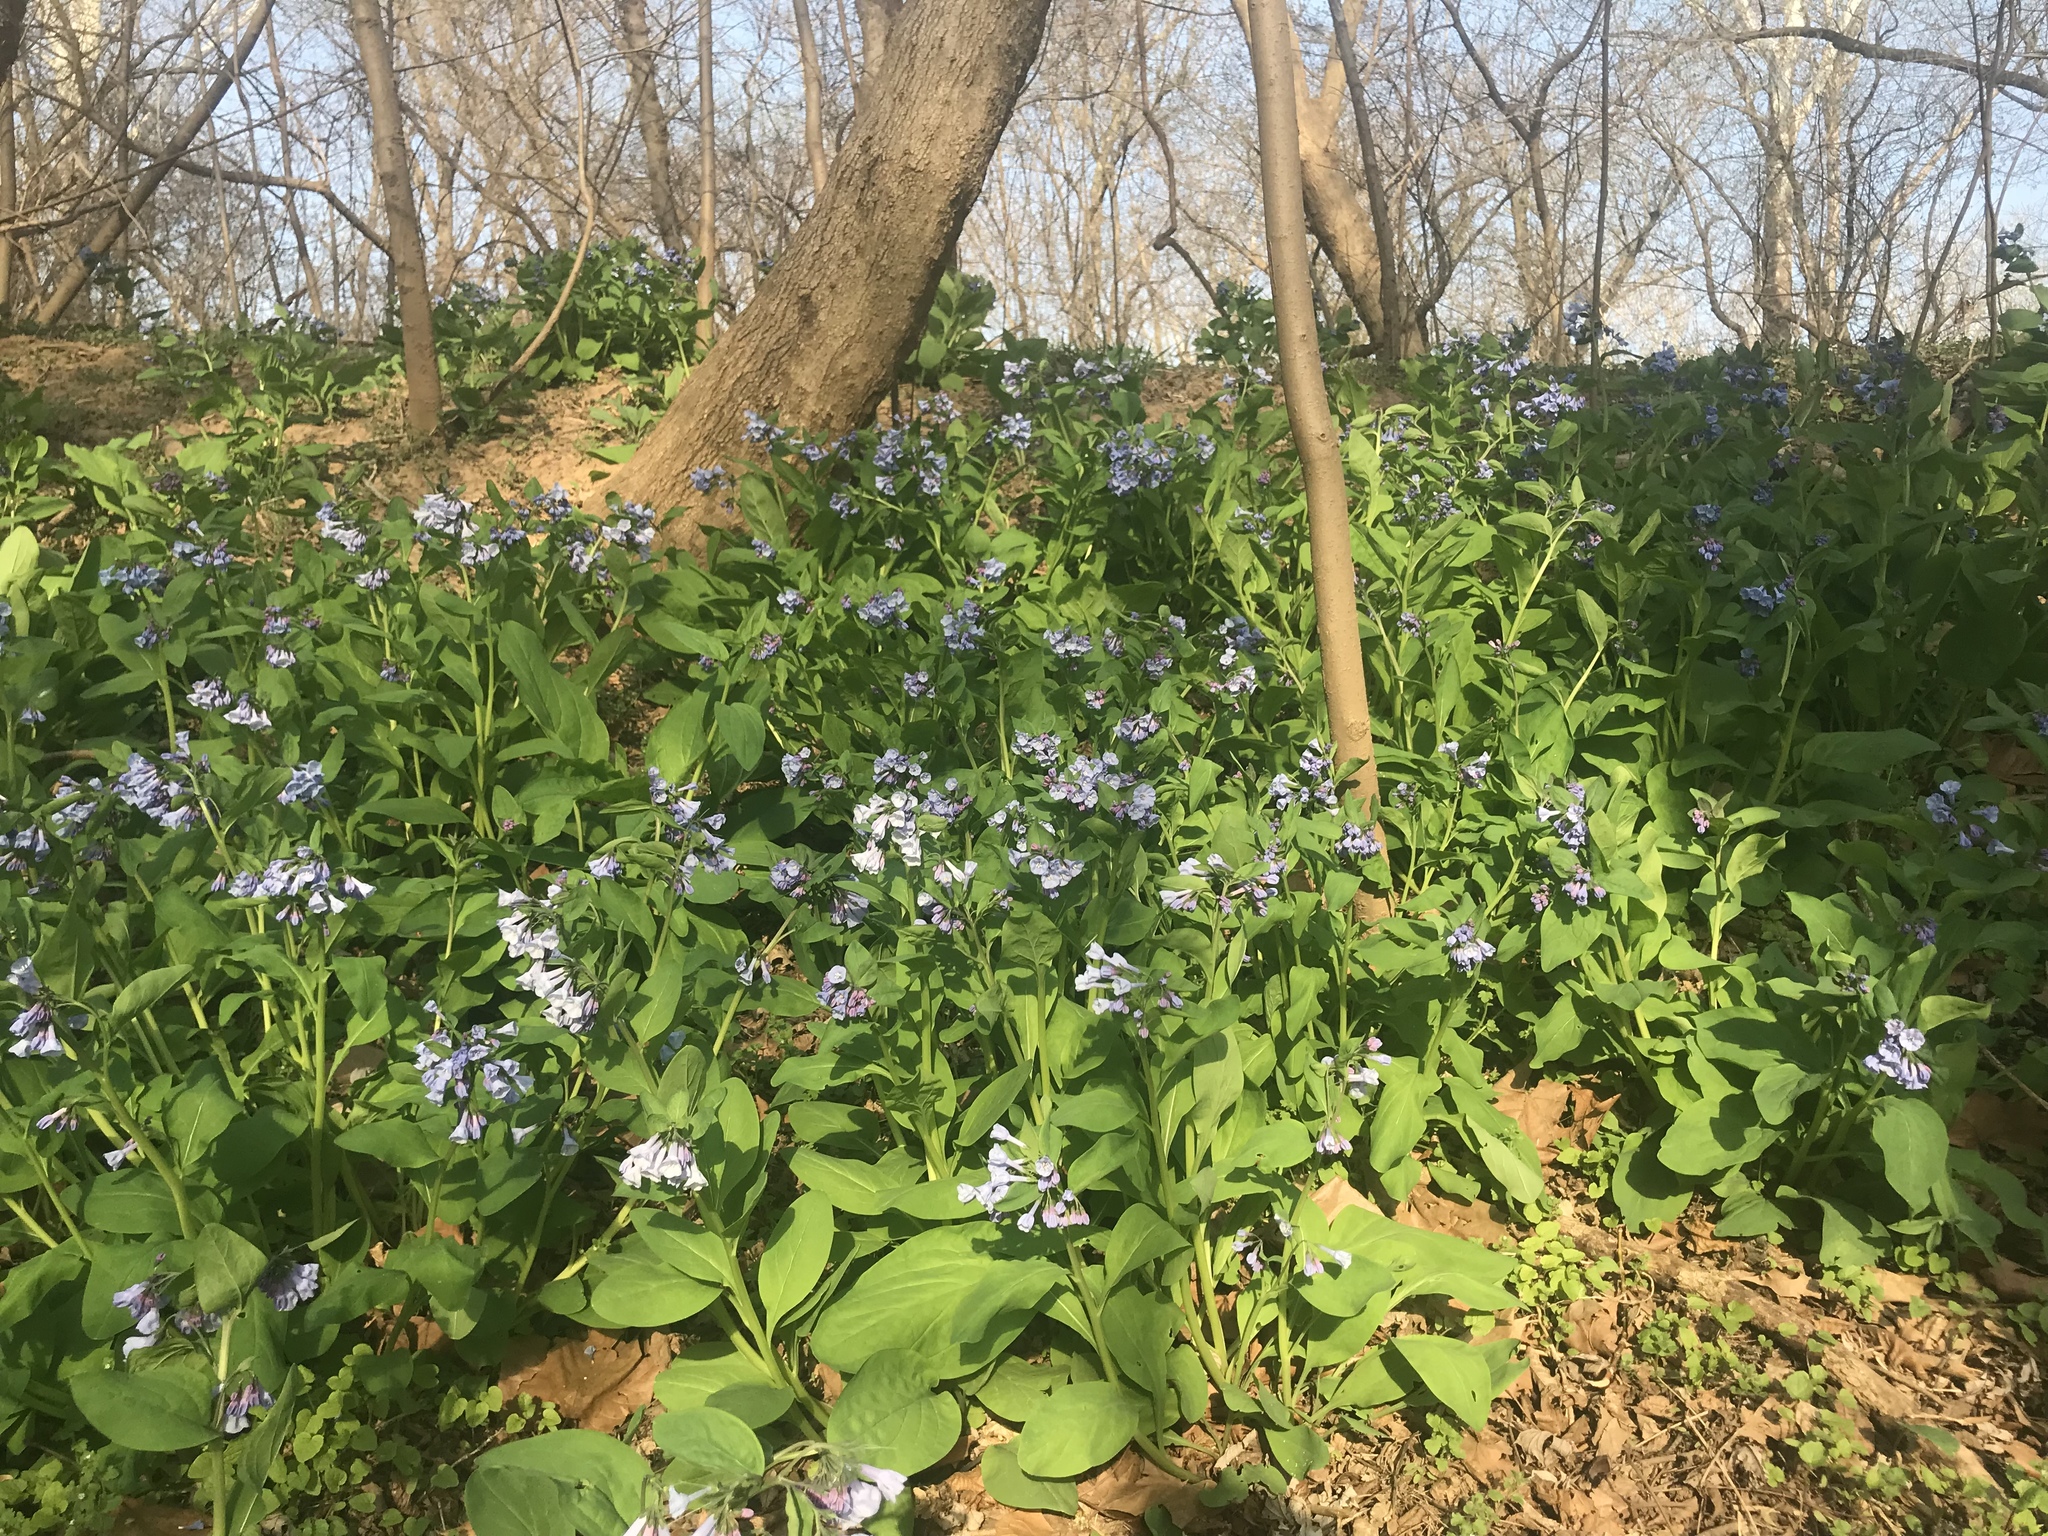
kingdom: Plantae
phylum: Tracheophyta
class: Magnoliopsida
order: Boraginales
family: Boraginaceae
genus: Mertensia
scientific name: Mertensia virginica
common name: Virginia bluebells
